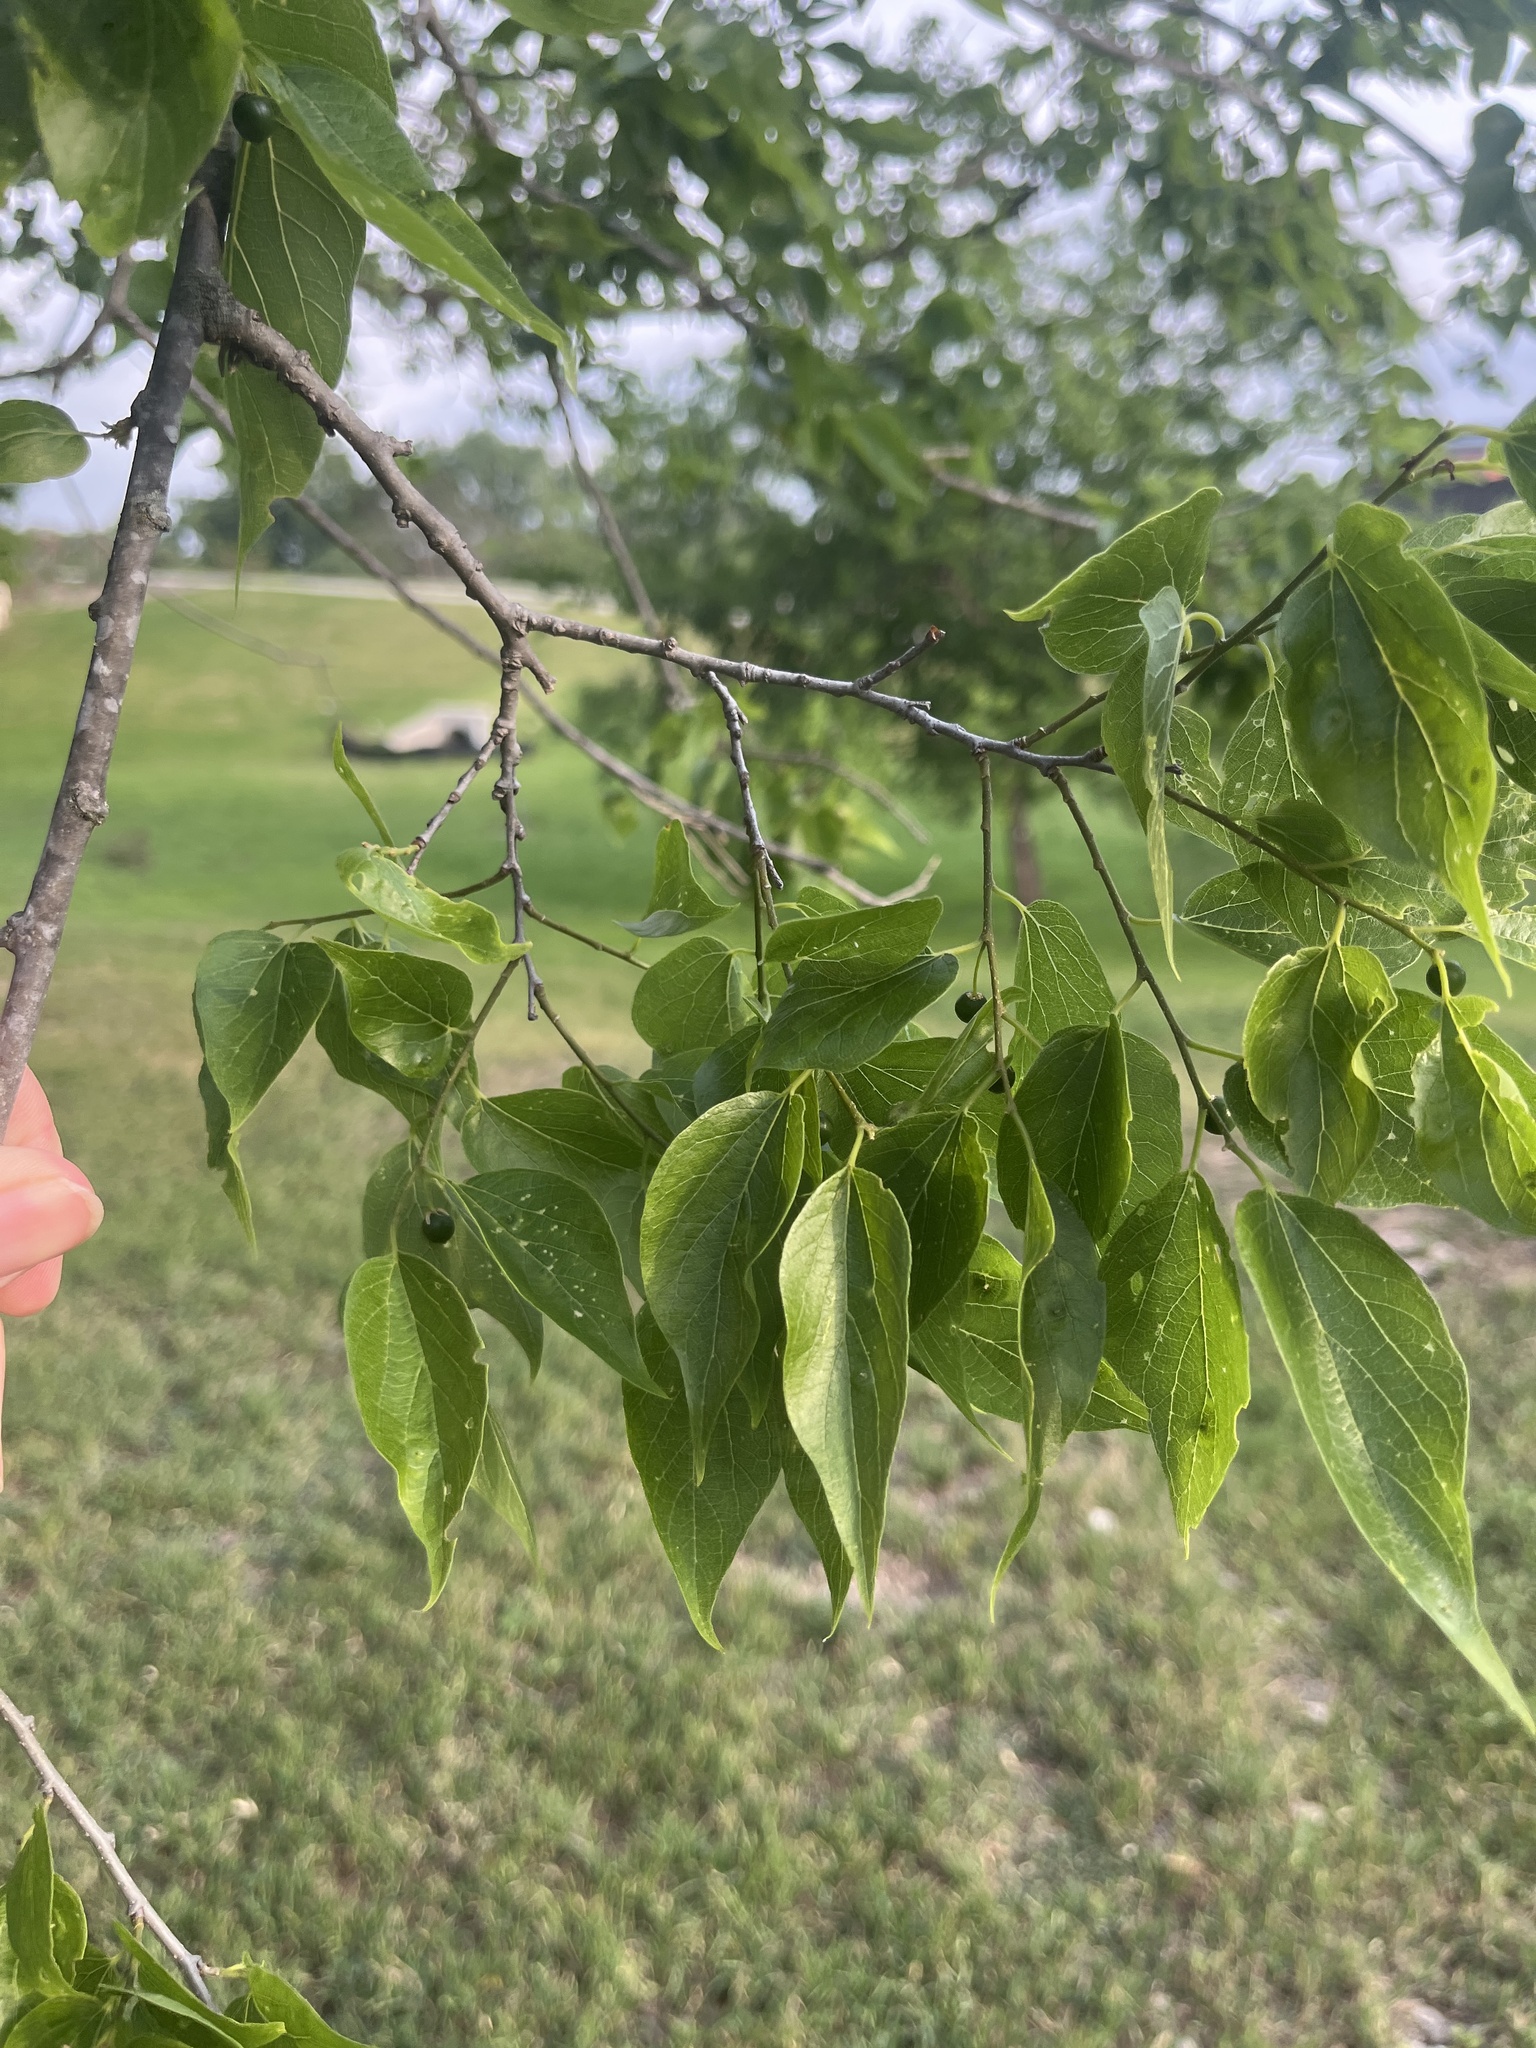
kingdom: Plantae
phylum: Tracheophyta
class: Magnoliopsida
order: Rosales
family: Cannabaceae
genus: Celtis
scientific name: Celtis laevigata
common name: Sugarberry
